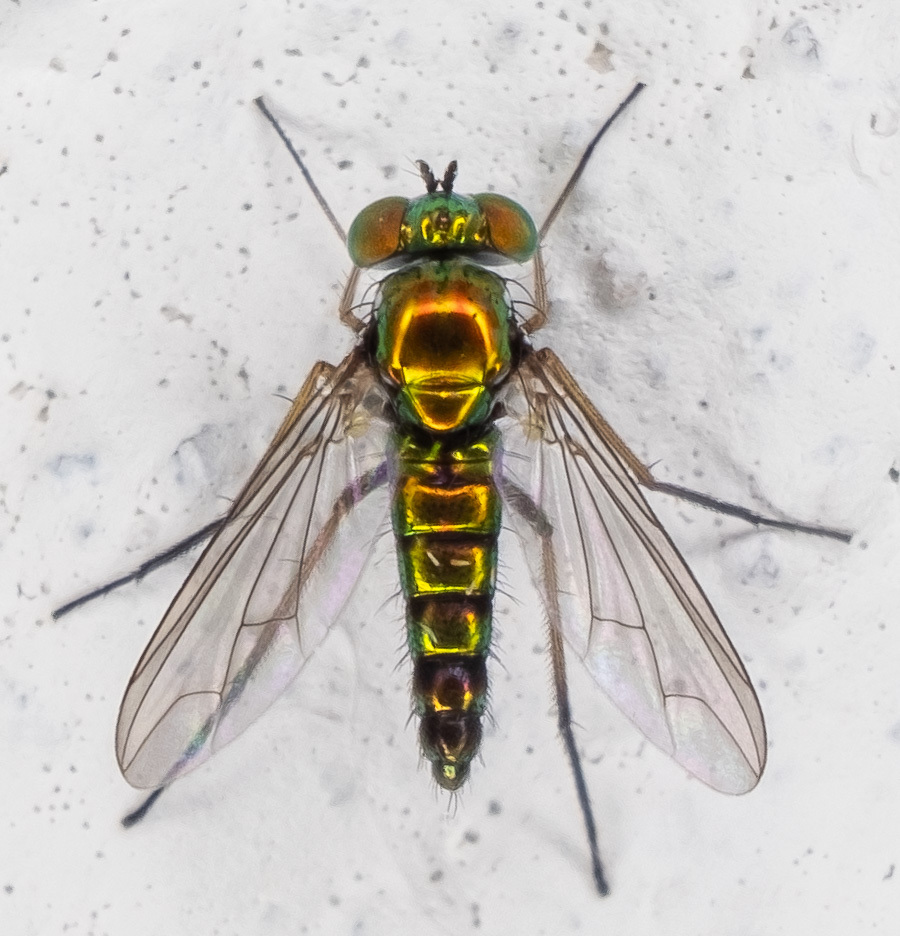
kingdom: Animalia
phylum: Arthropoda
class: Insecta
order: Diptera
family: Dolichopodidae
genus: Condylostylus
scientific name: Condylostylus connectans
